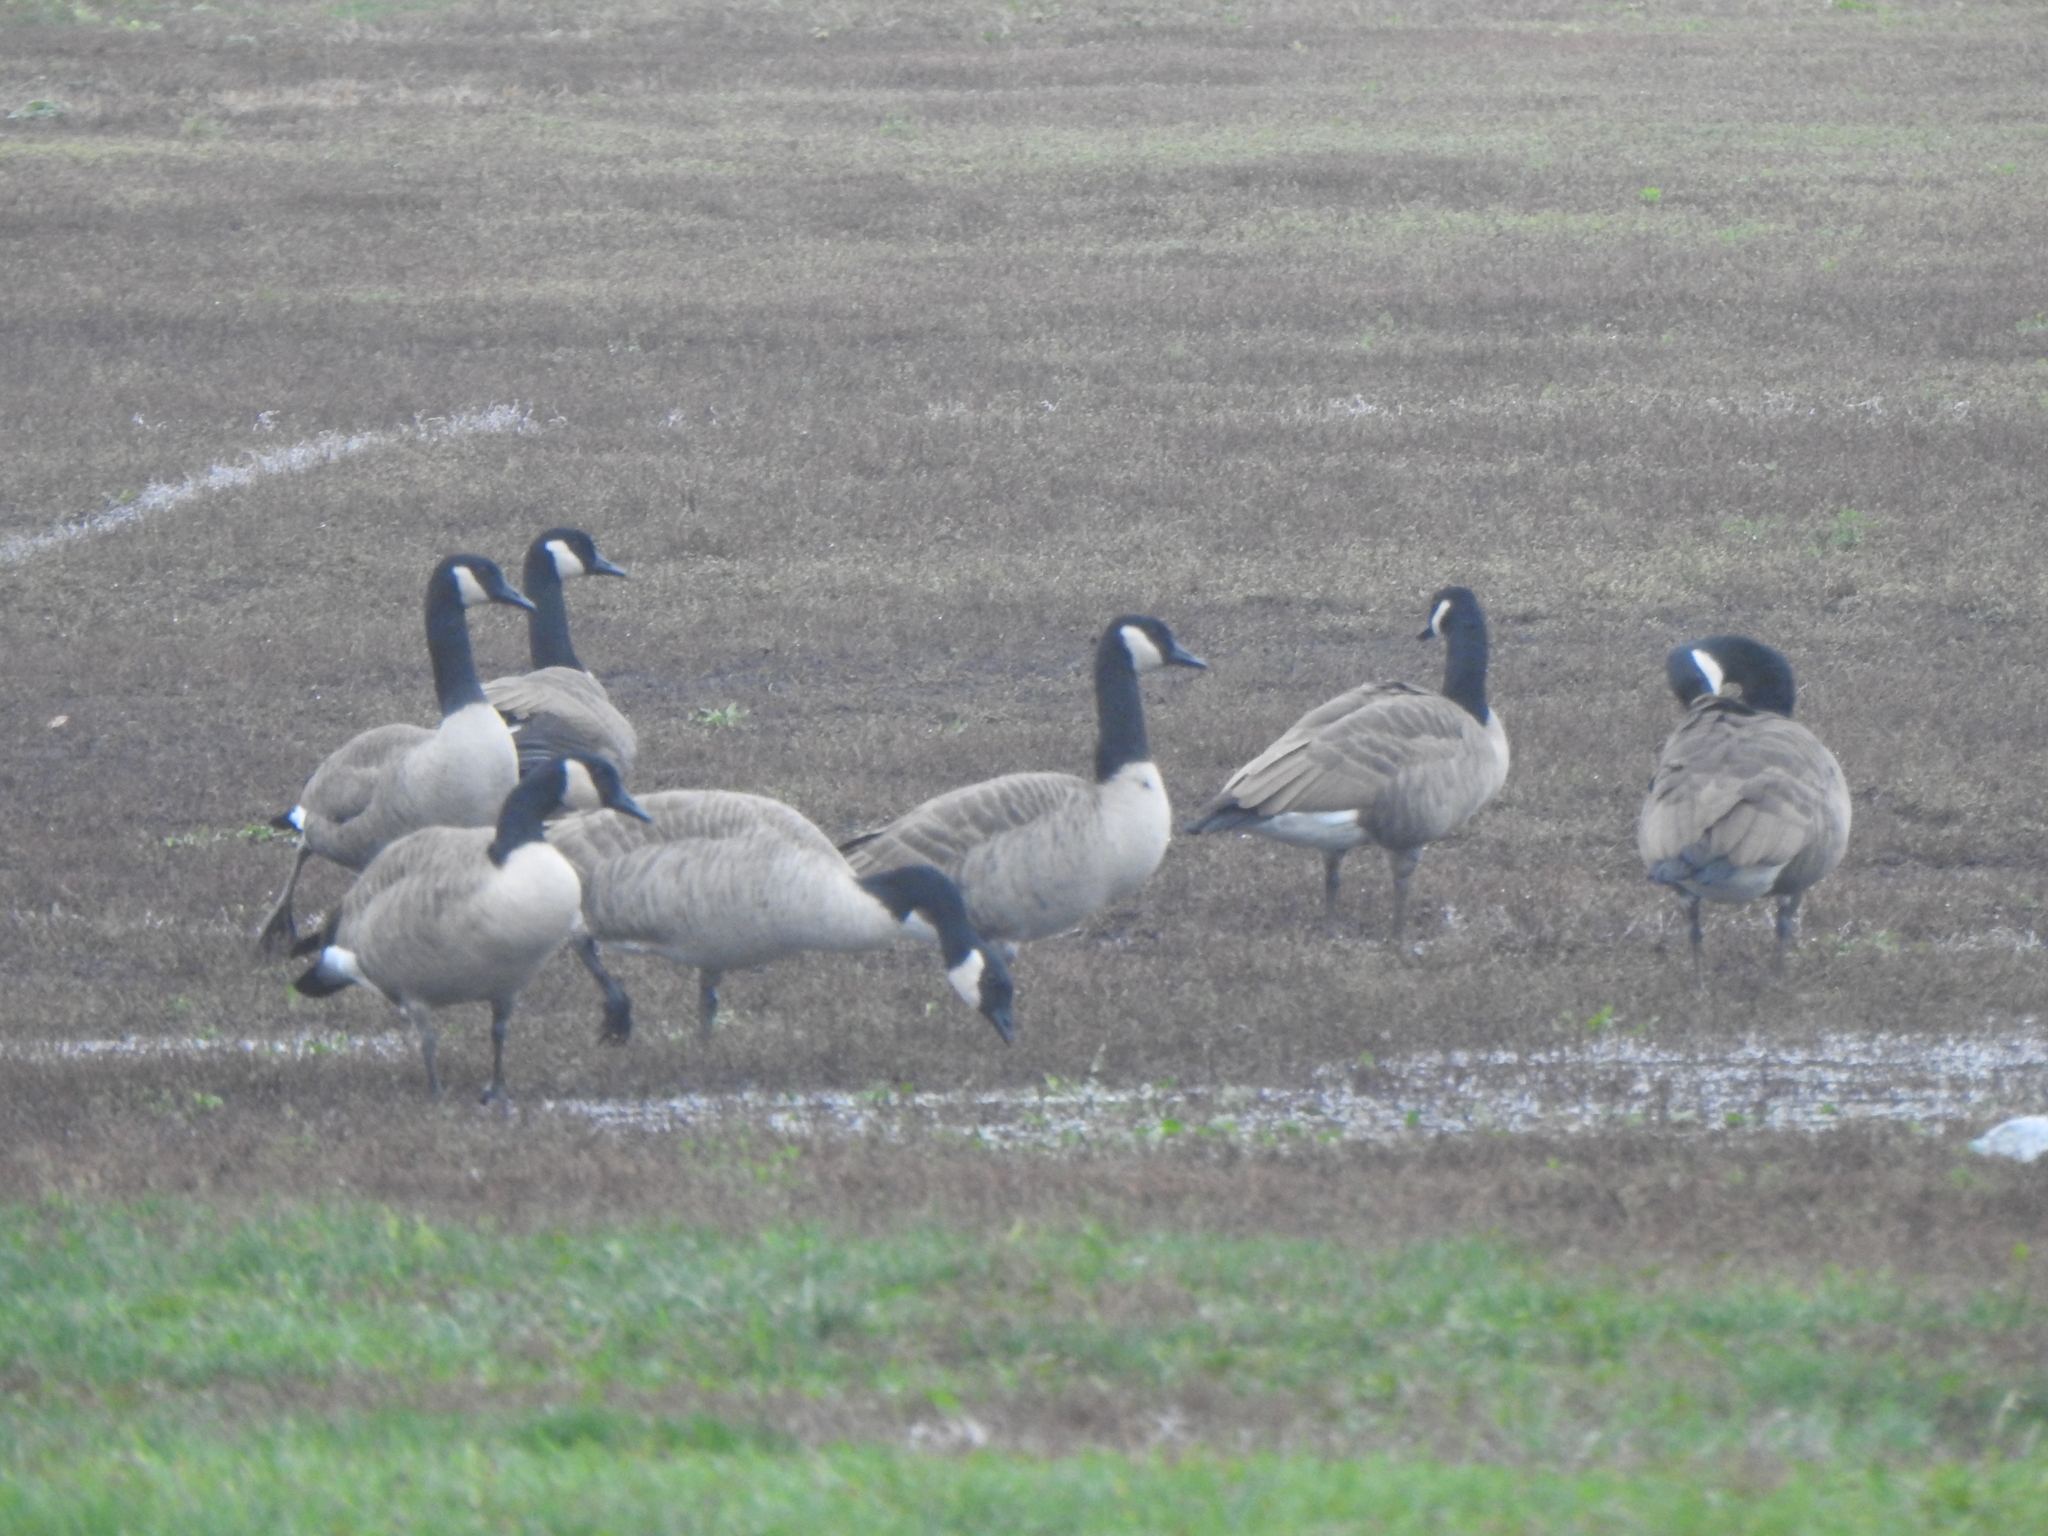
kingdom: Animalia
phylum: Chordata
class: Aves
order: Anseriformes
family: Anatidae
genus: Branta
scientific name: Branta canadensis
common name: Canada goose
